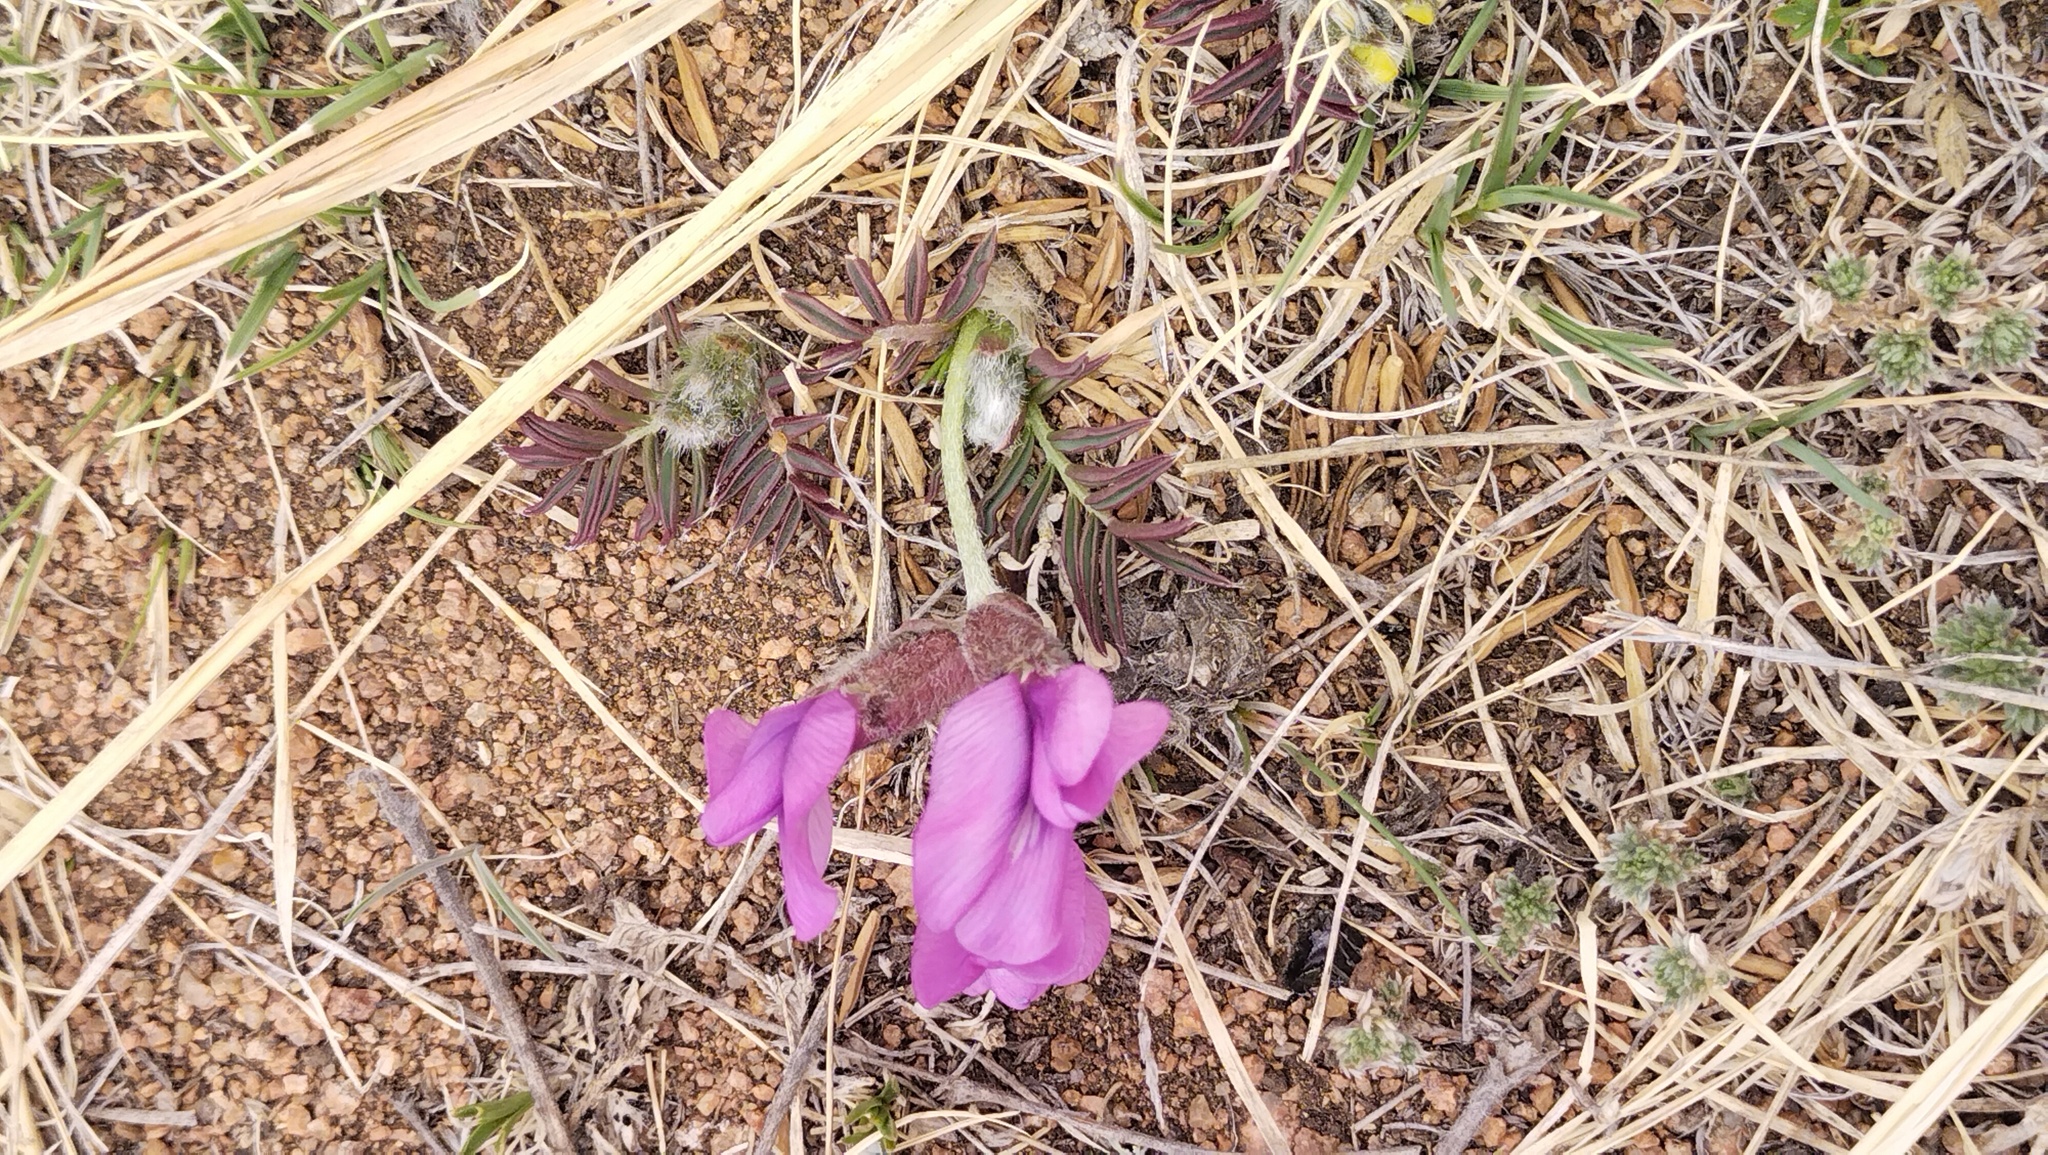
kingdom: Plantae
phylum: Tracheophyta
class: Magnoliopsida
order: Fabales
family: Fabaceae
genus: Oxytropis
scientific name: Oxytropis nuda
